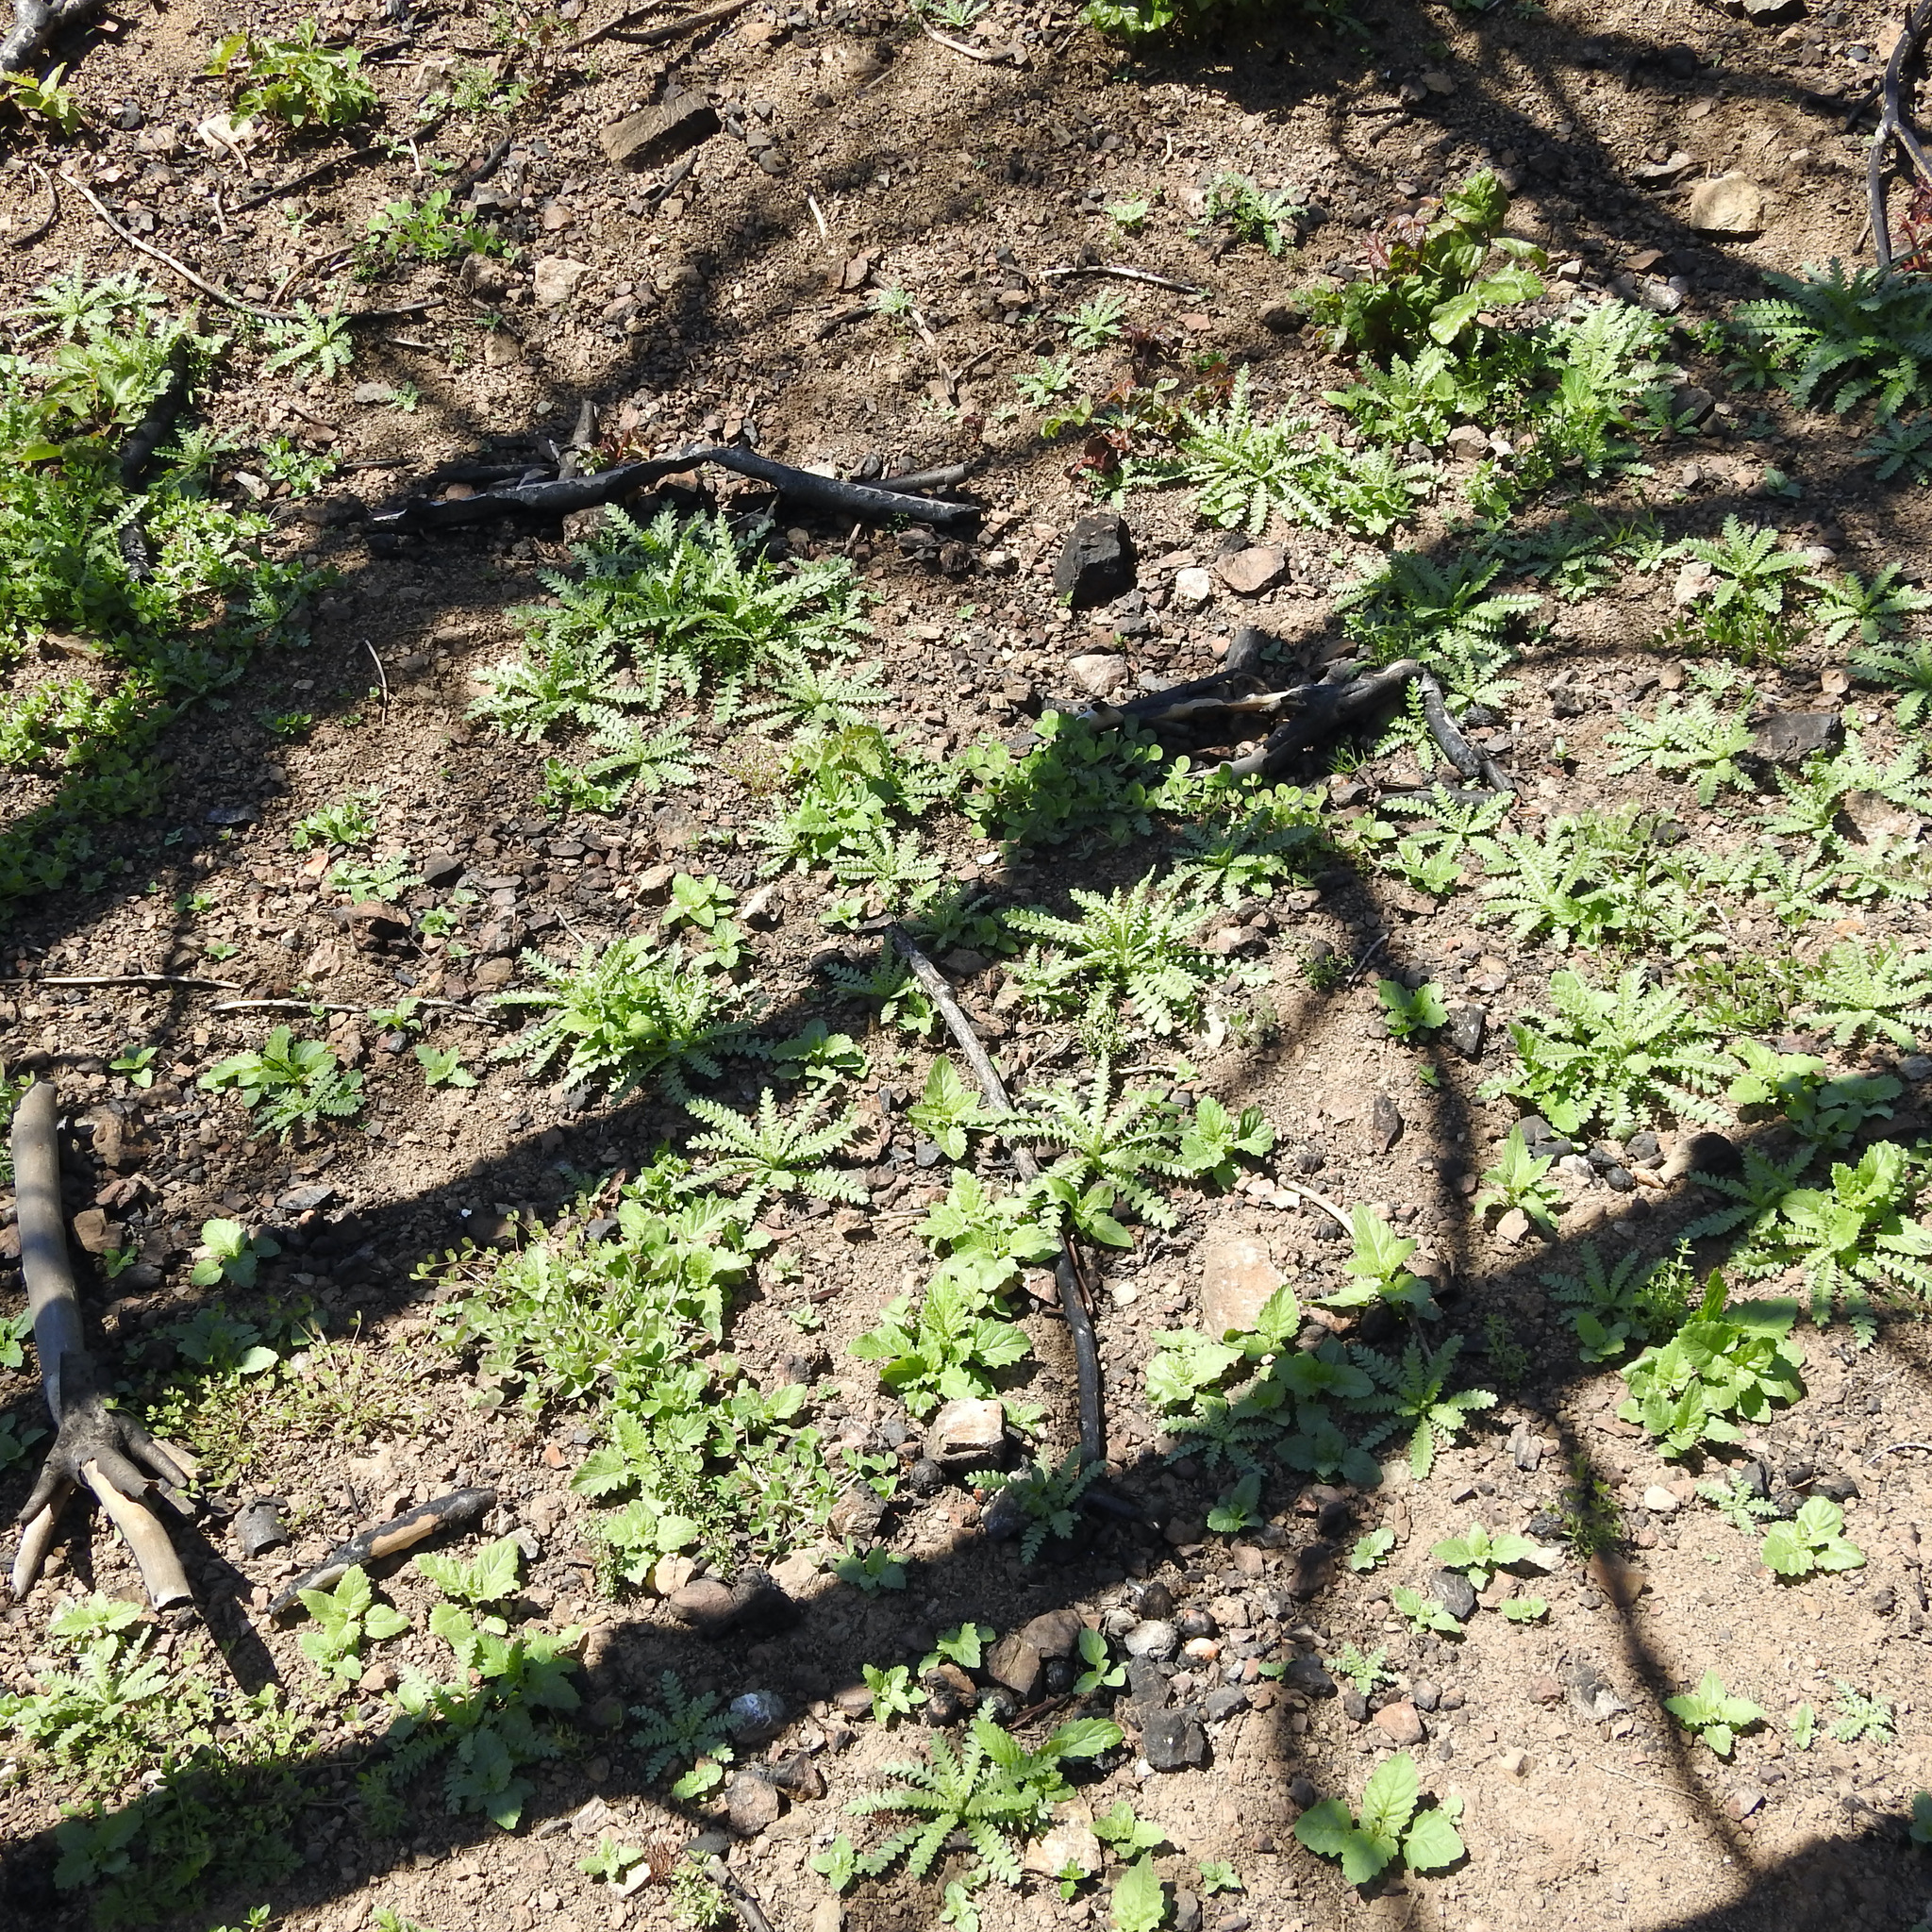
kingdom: Plantae
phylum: Tracheophyta
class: Magnoliopsida
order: Boraginales
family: Hydrophyllaceae
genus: Emmenanthe
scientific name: Emmenanthe penduliflora
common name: Whispering-bells
